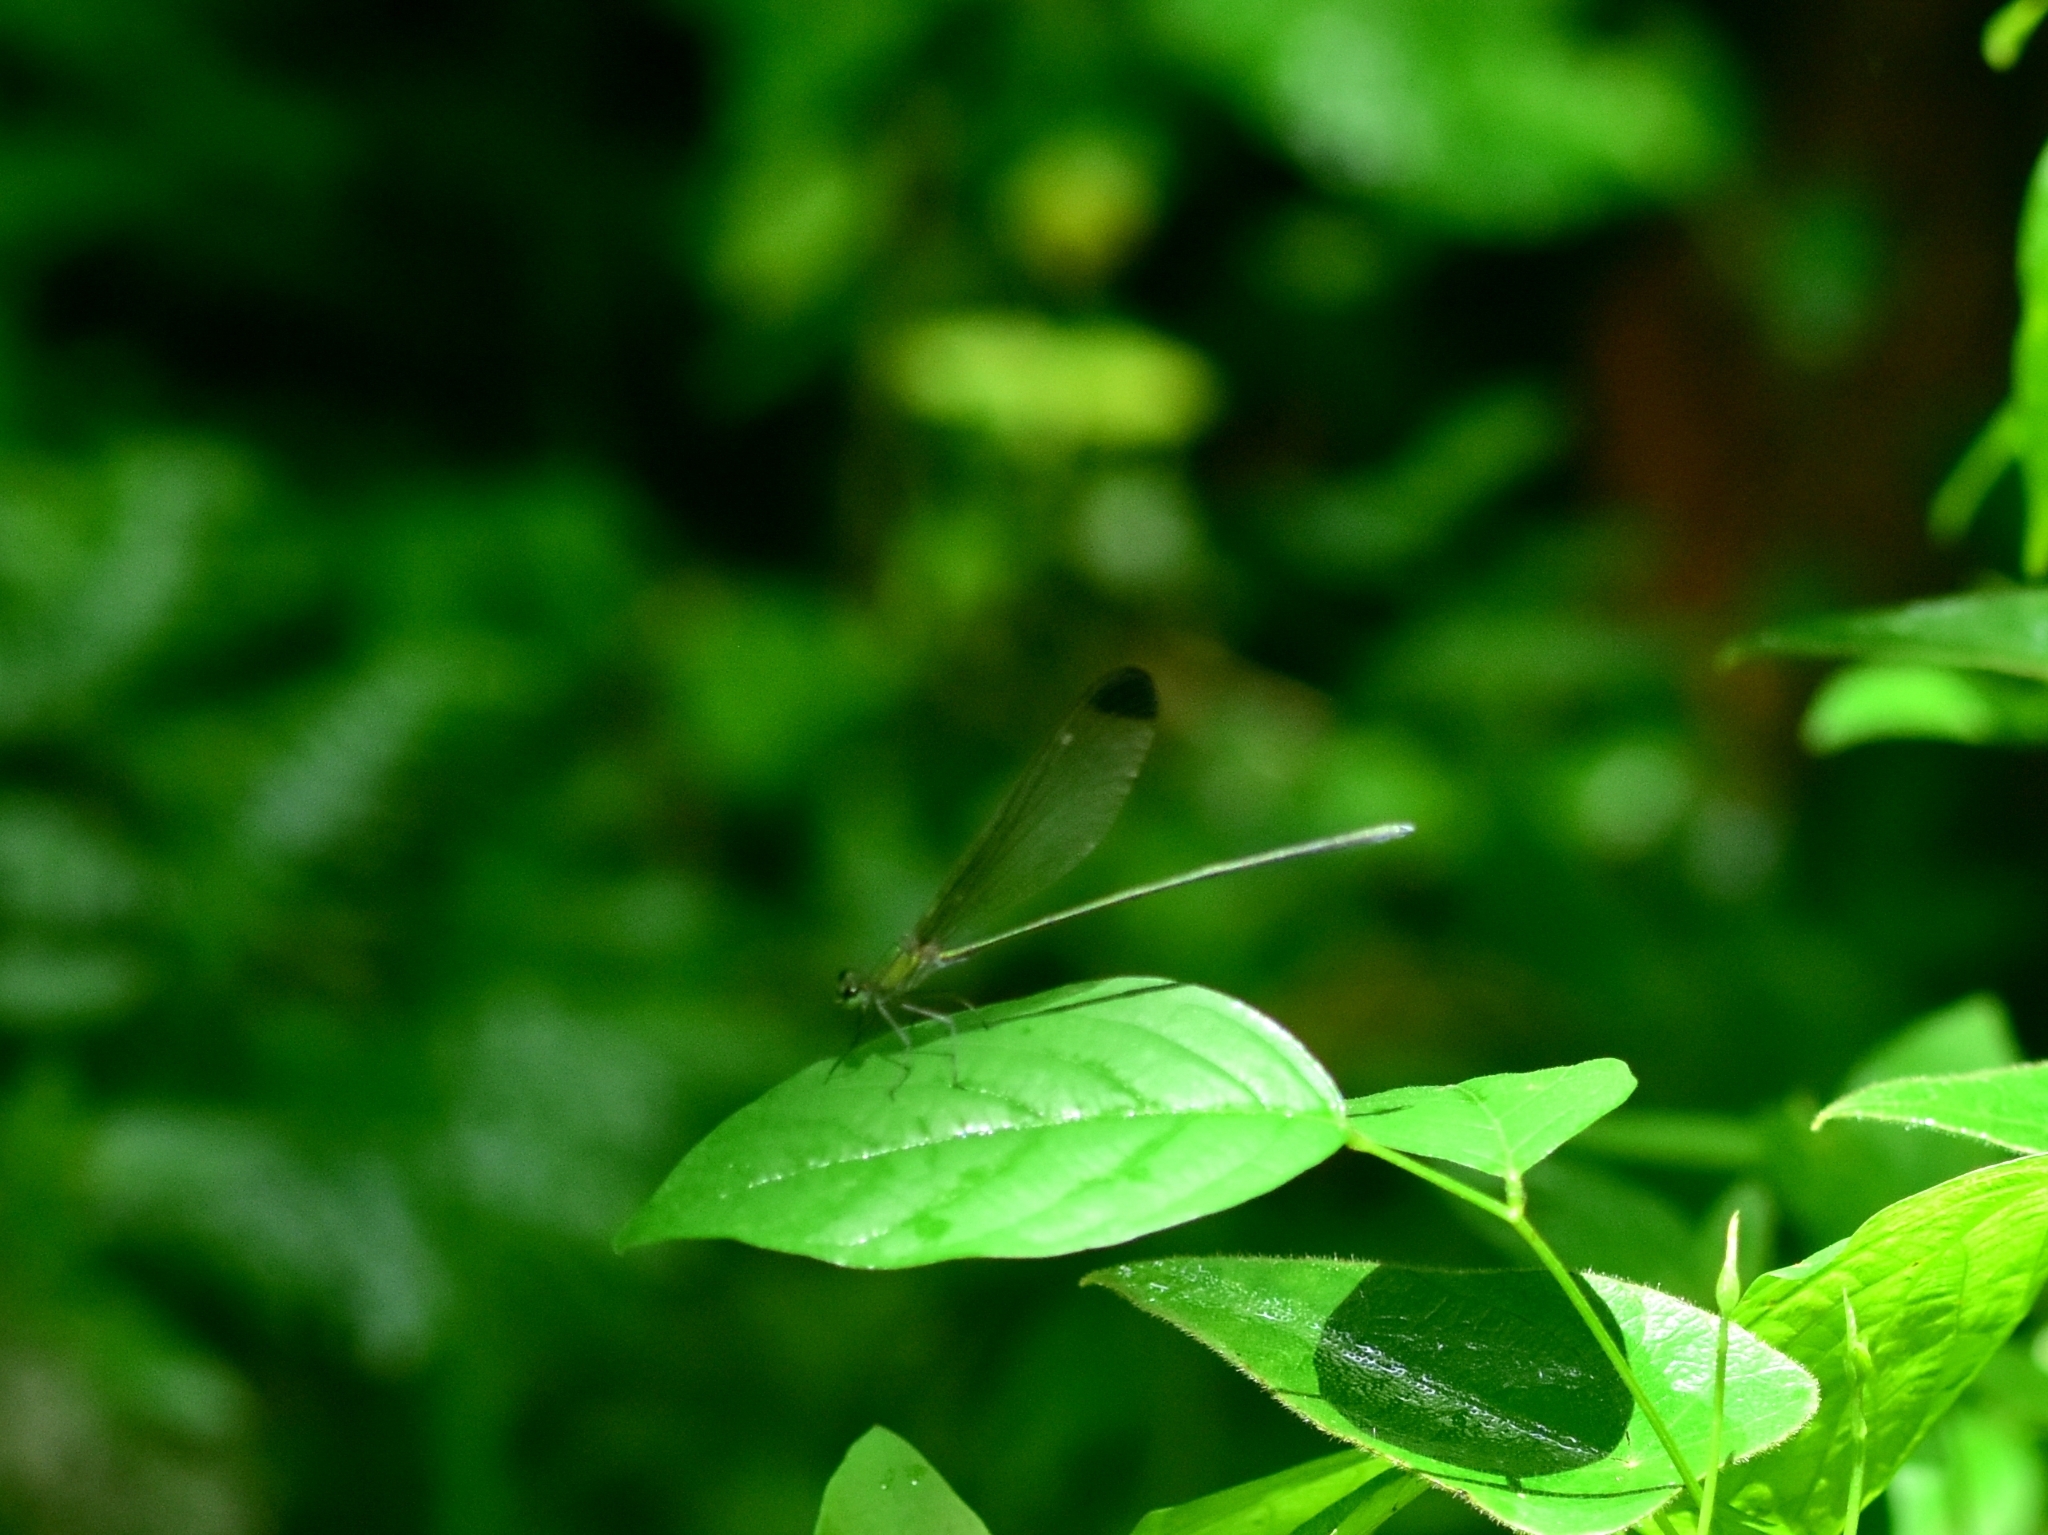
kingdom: Animalia
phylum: Arthropoda
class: Insecta
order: Odonata
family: Calopterygidae
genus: Vestalis
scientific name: Vestalis apicalis
